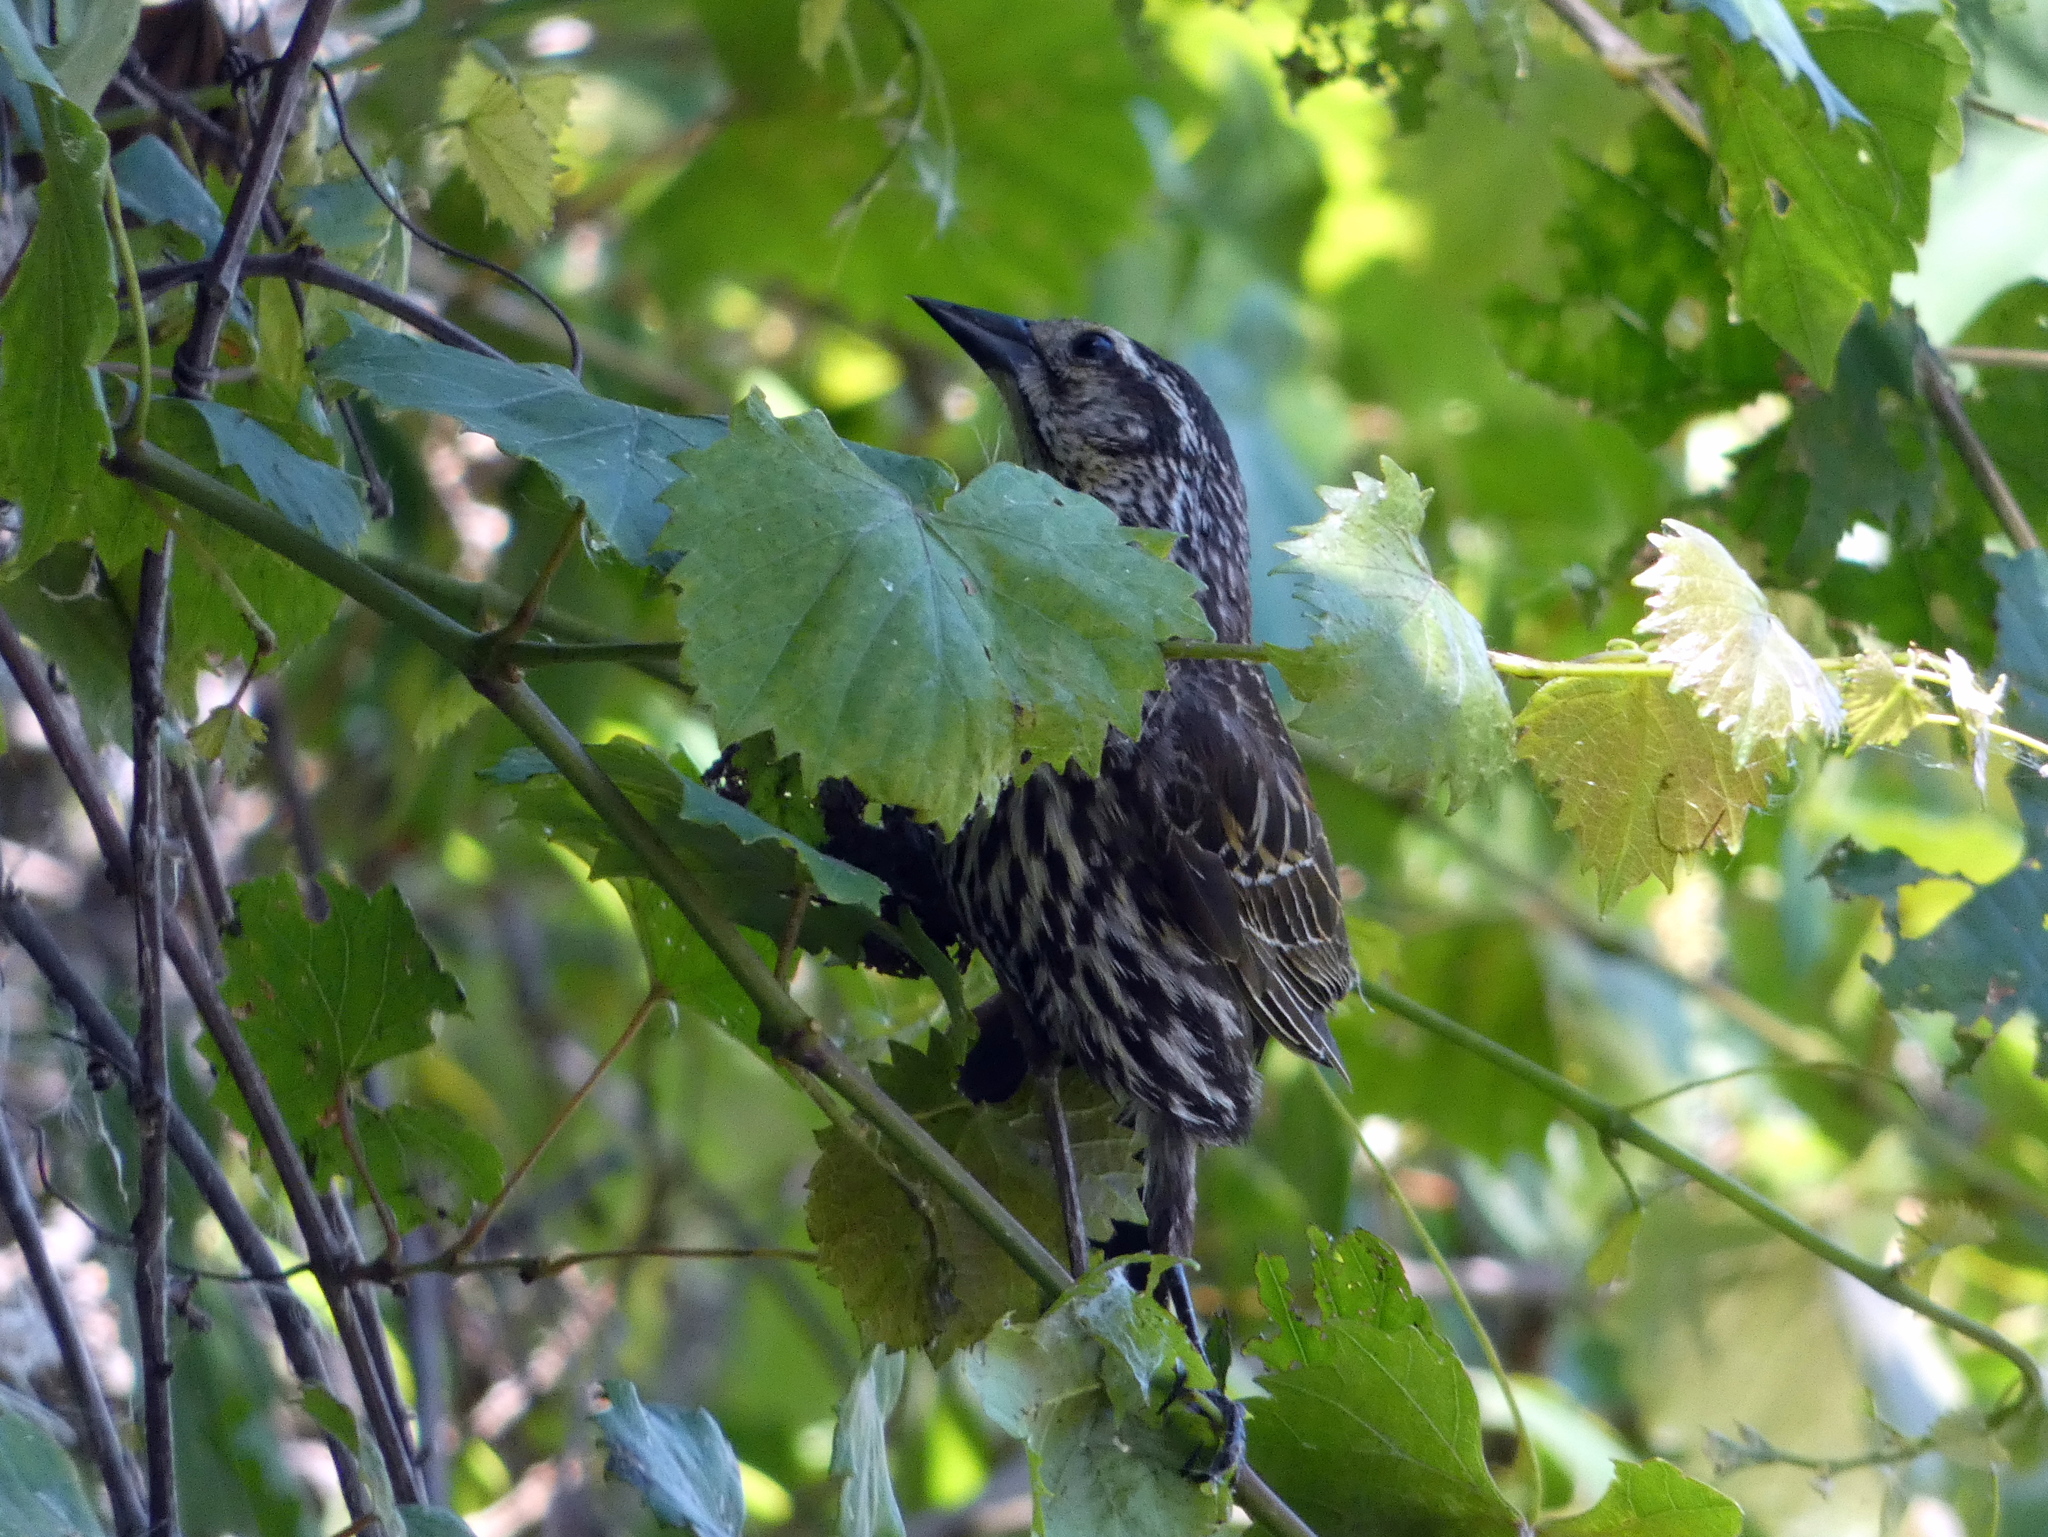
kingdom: Animalia
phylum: Chordata
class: Aves
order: Passeriformes
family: Icteridae
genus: Agelaius
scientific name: Agelaius phoeniceus
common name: Red-winged blackbird
